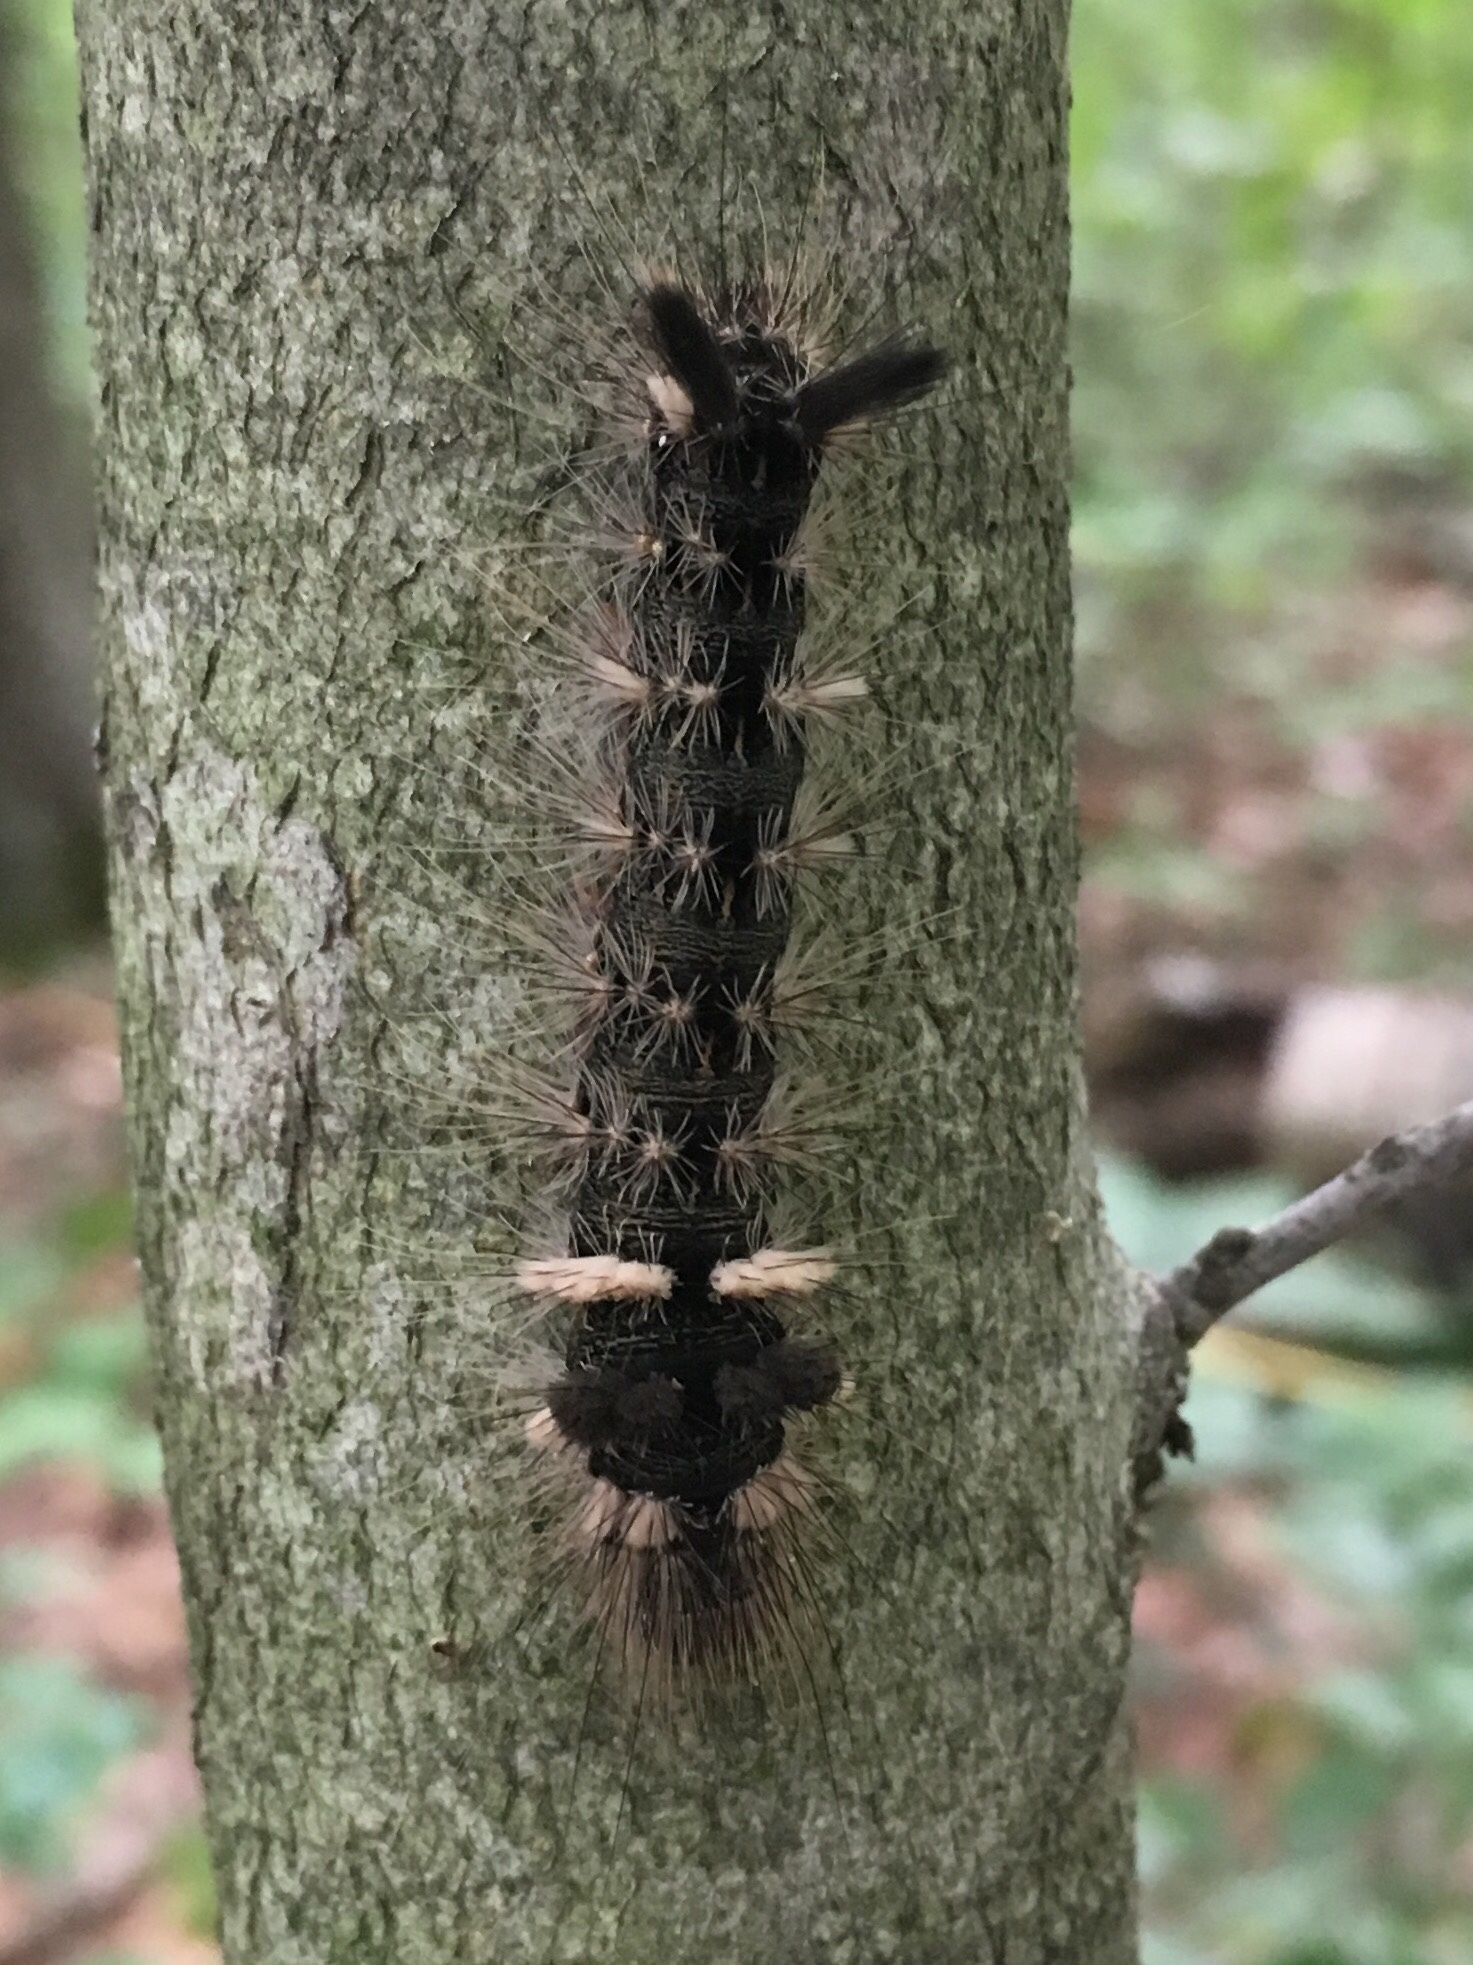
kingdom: Animalia
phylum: Arthropoda
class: Insecta
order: Lepidoptera
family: Noctuidae
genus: Acronicta
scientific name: Acronicta impleta
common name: Powdered dagger
